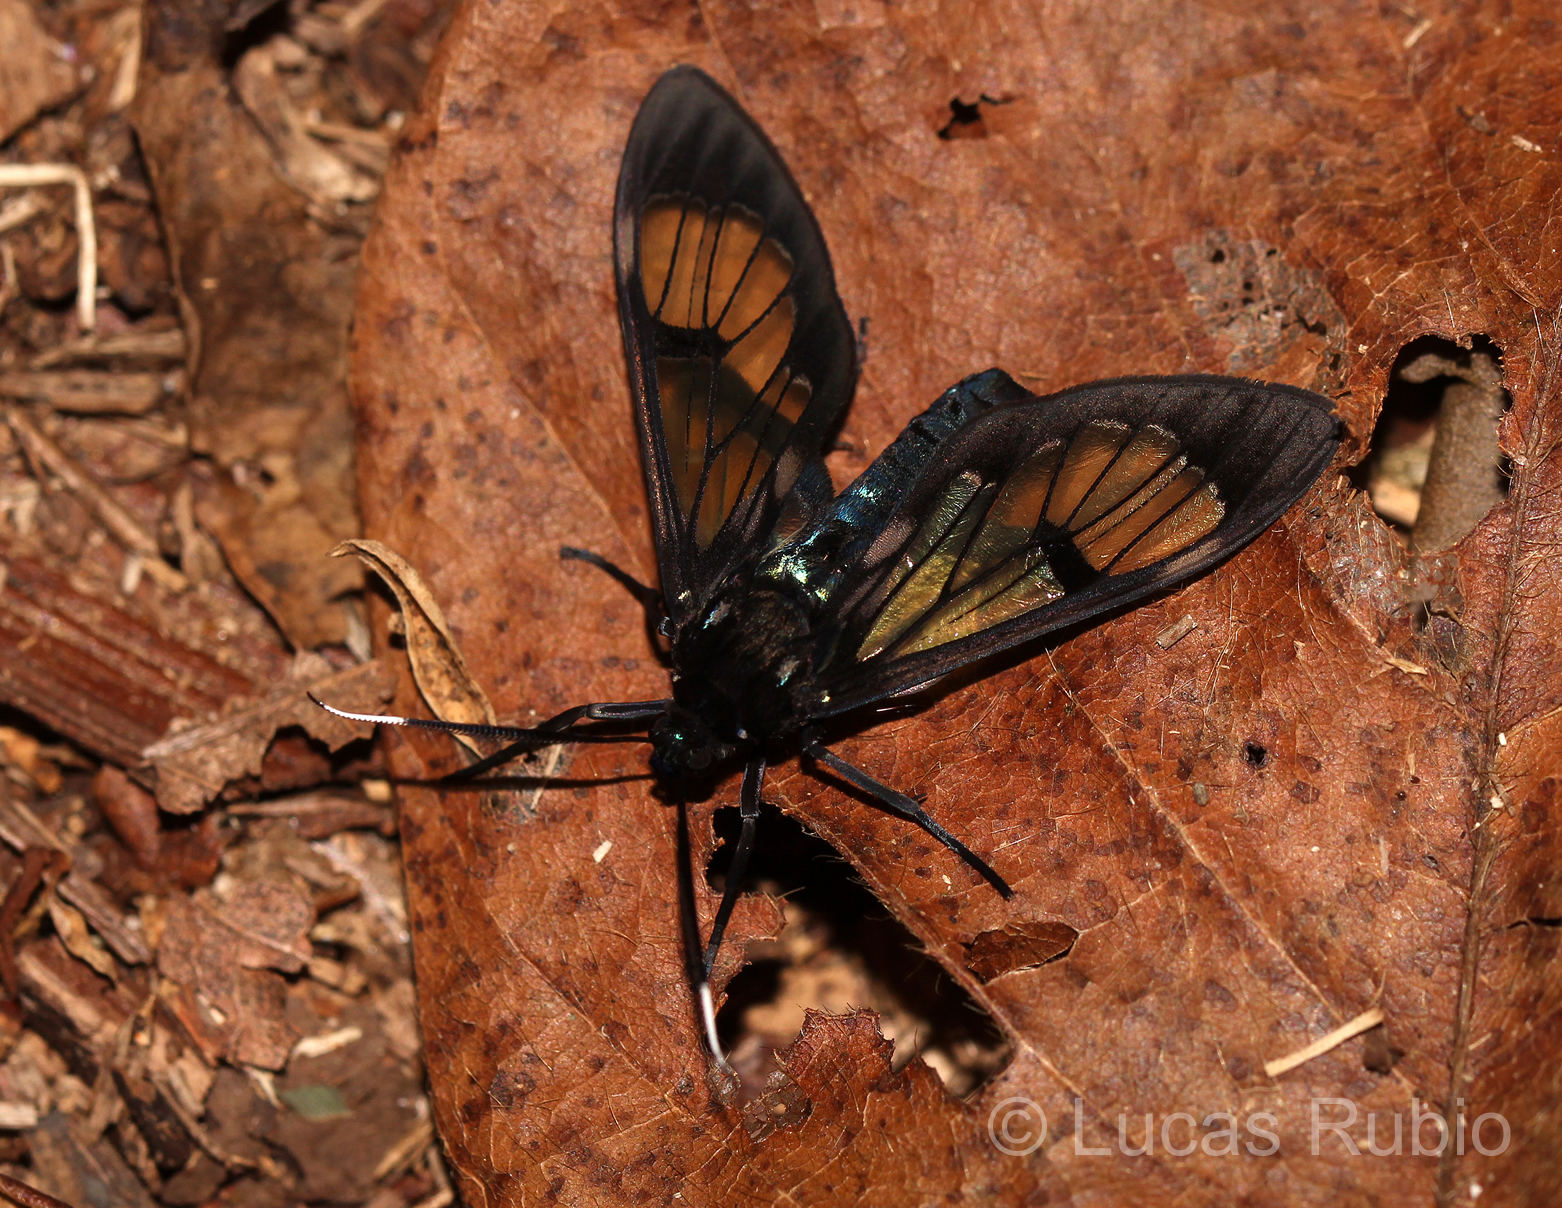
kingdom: Animalia
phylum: Arthropoda
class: Insecta
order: Lepidoptera
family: Erebidae
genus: Neotrichura
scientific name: Neotrichura nigripes
